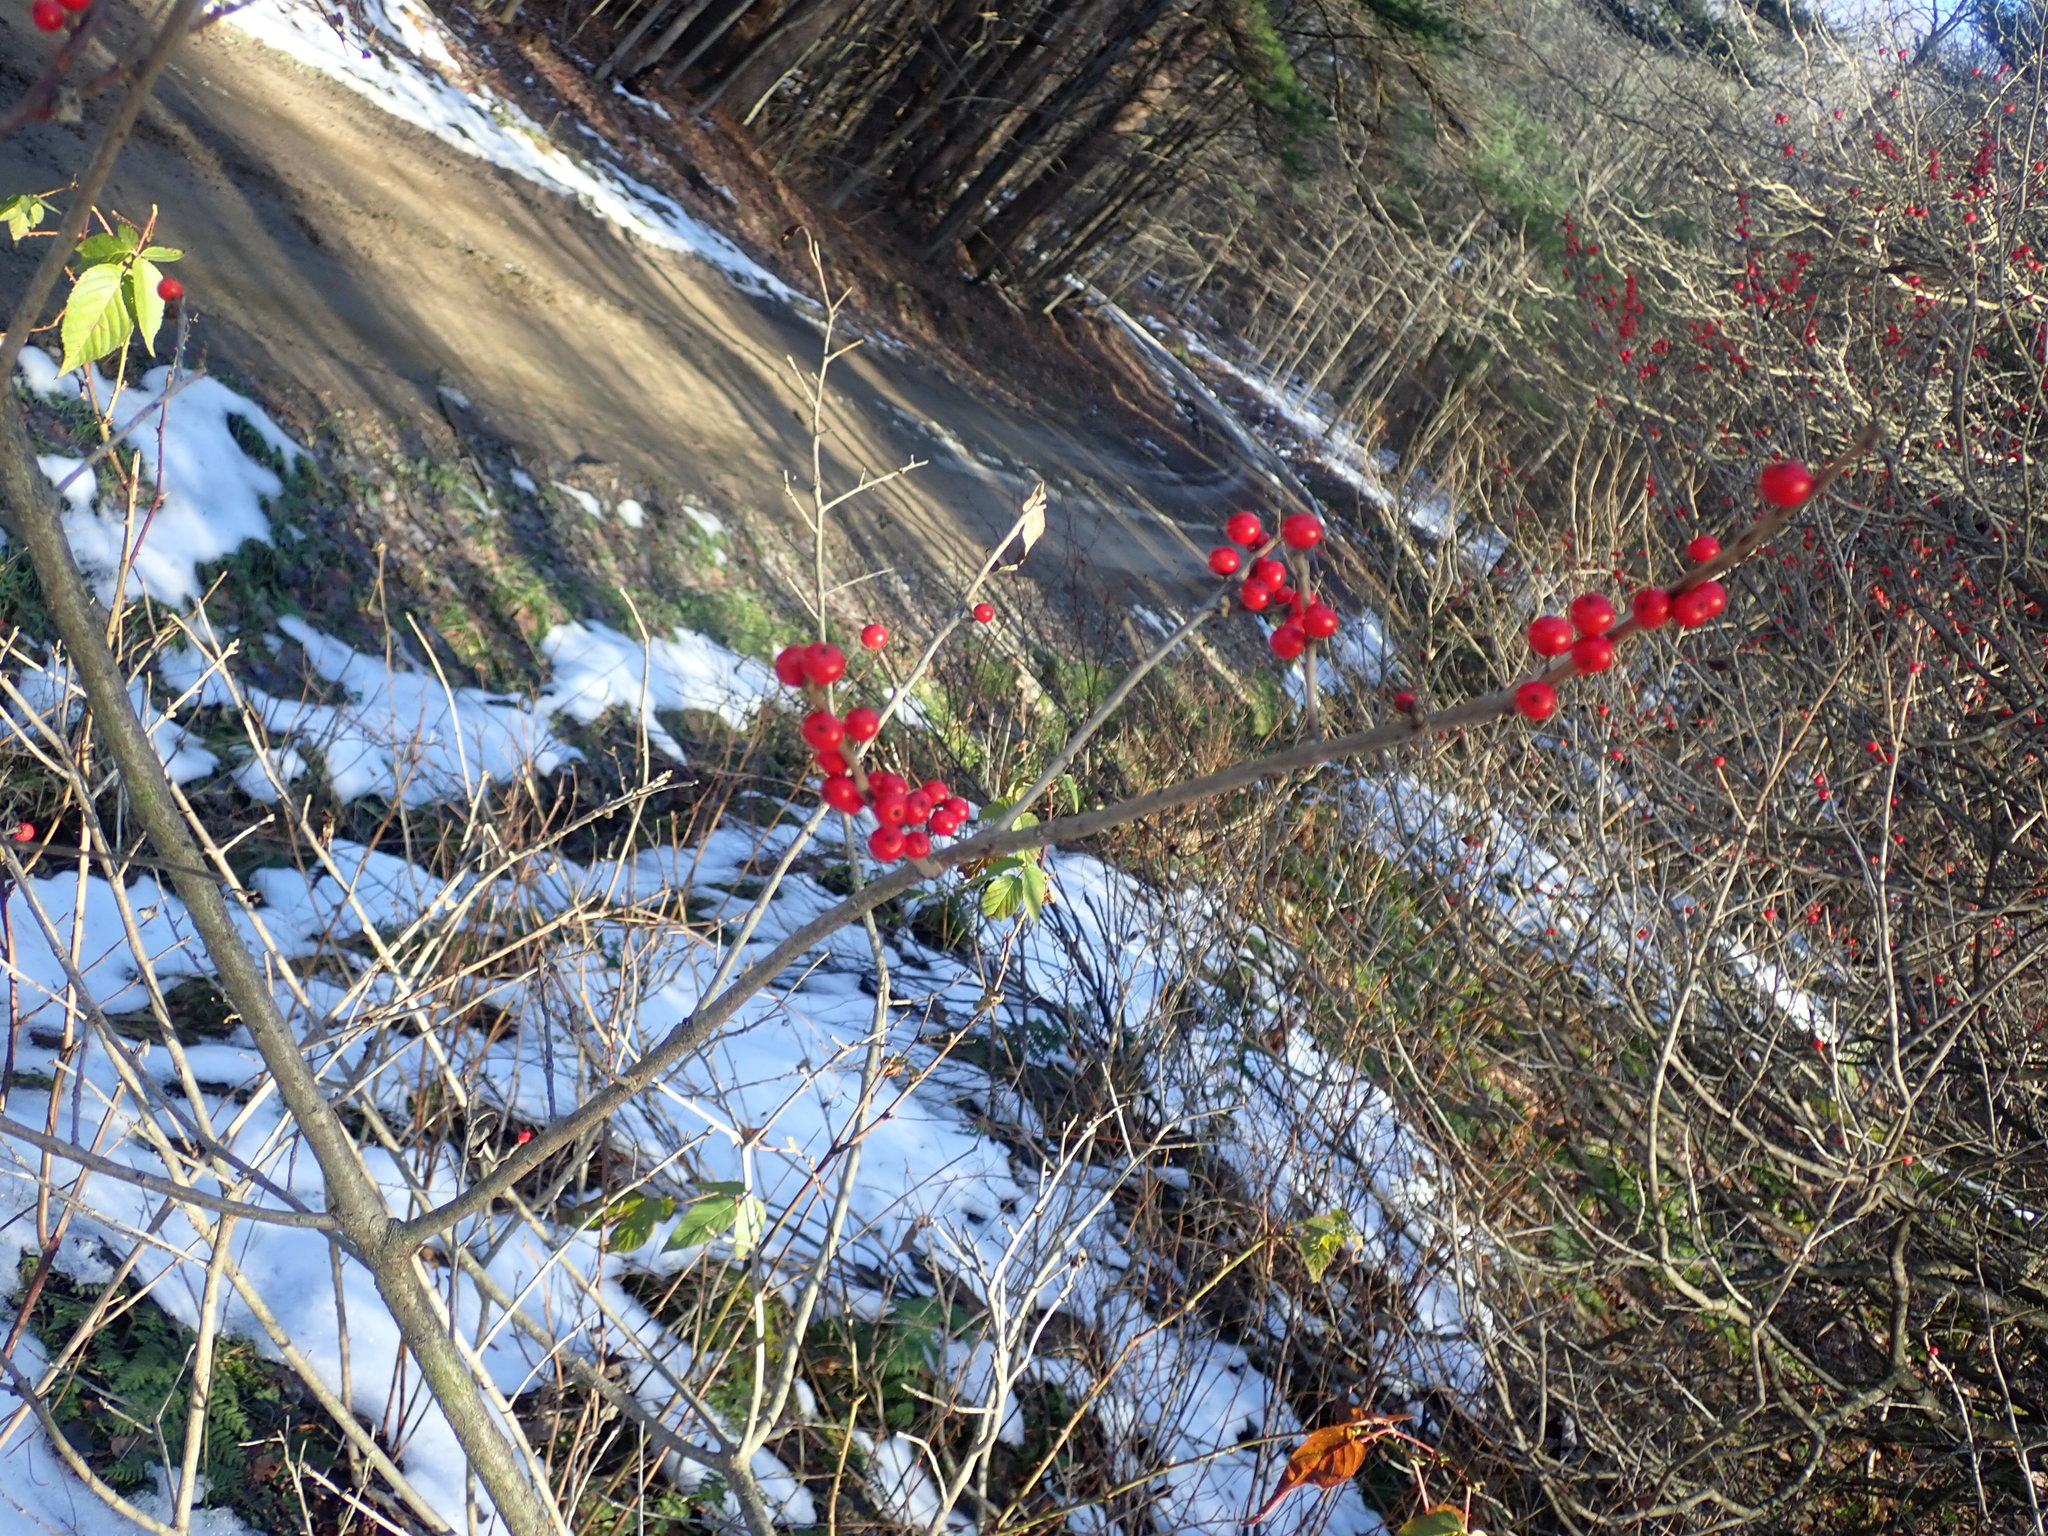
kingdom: Plantae
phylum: Tracheophyta
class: Magnoliopsida
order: Aquifoliales
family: Aquifoliaceae
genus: Ilex
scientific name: Ilex verticillata
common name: Virginia winterberry
